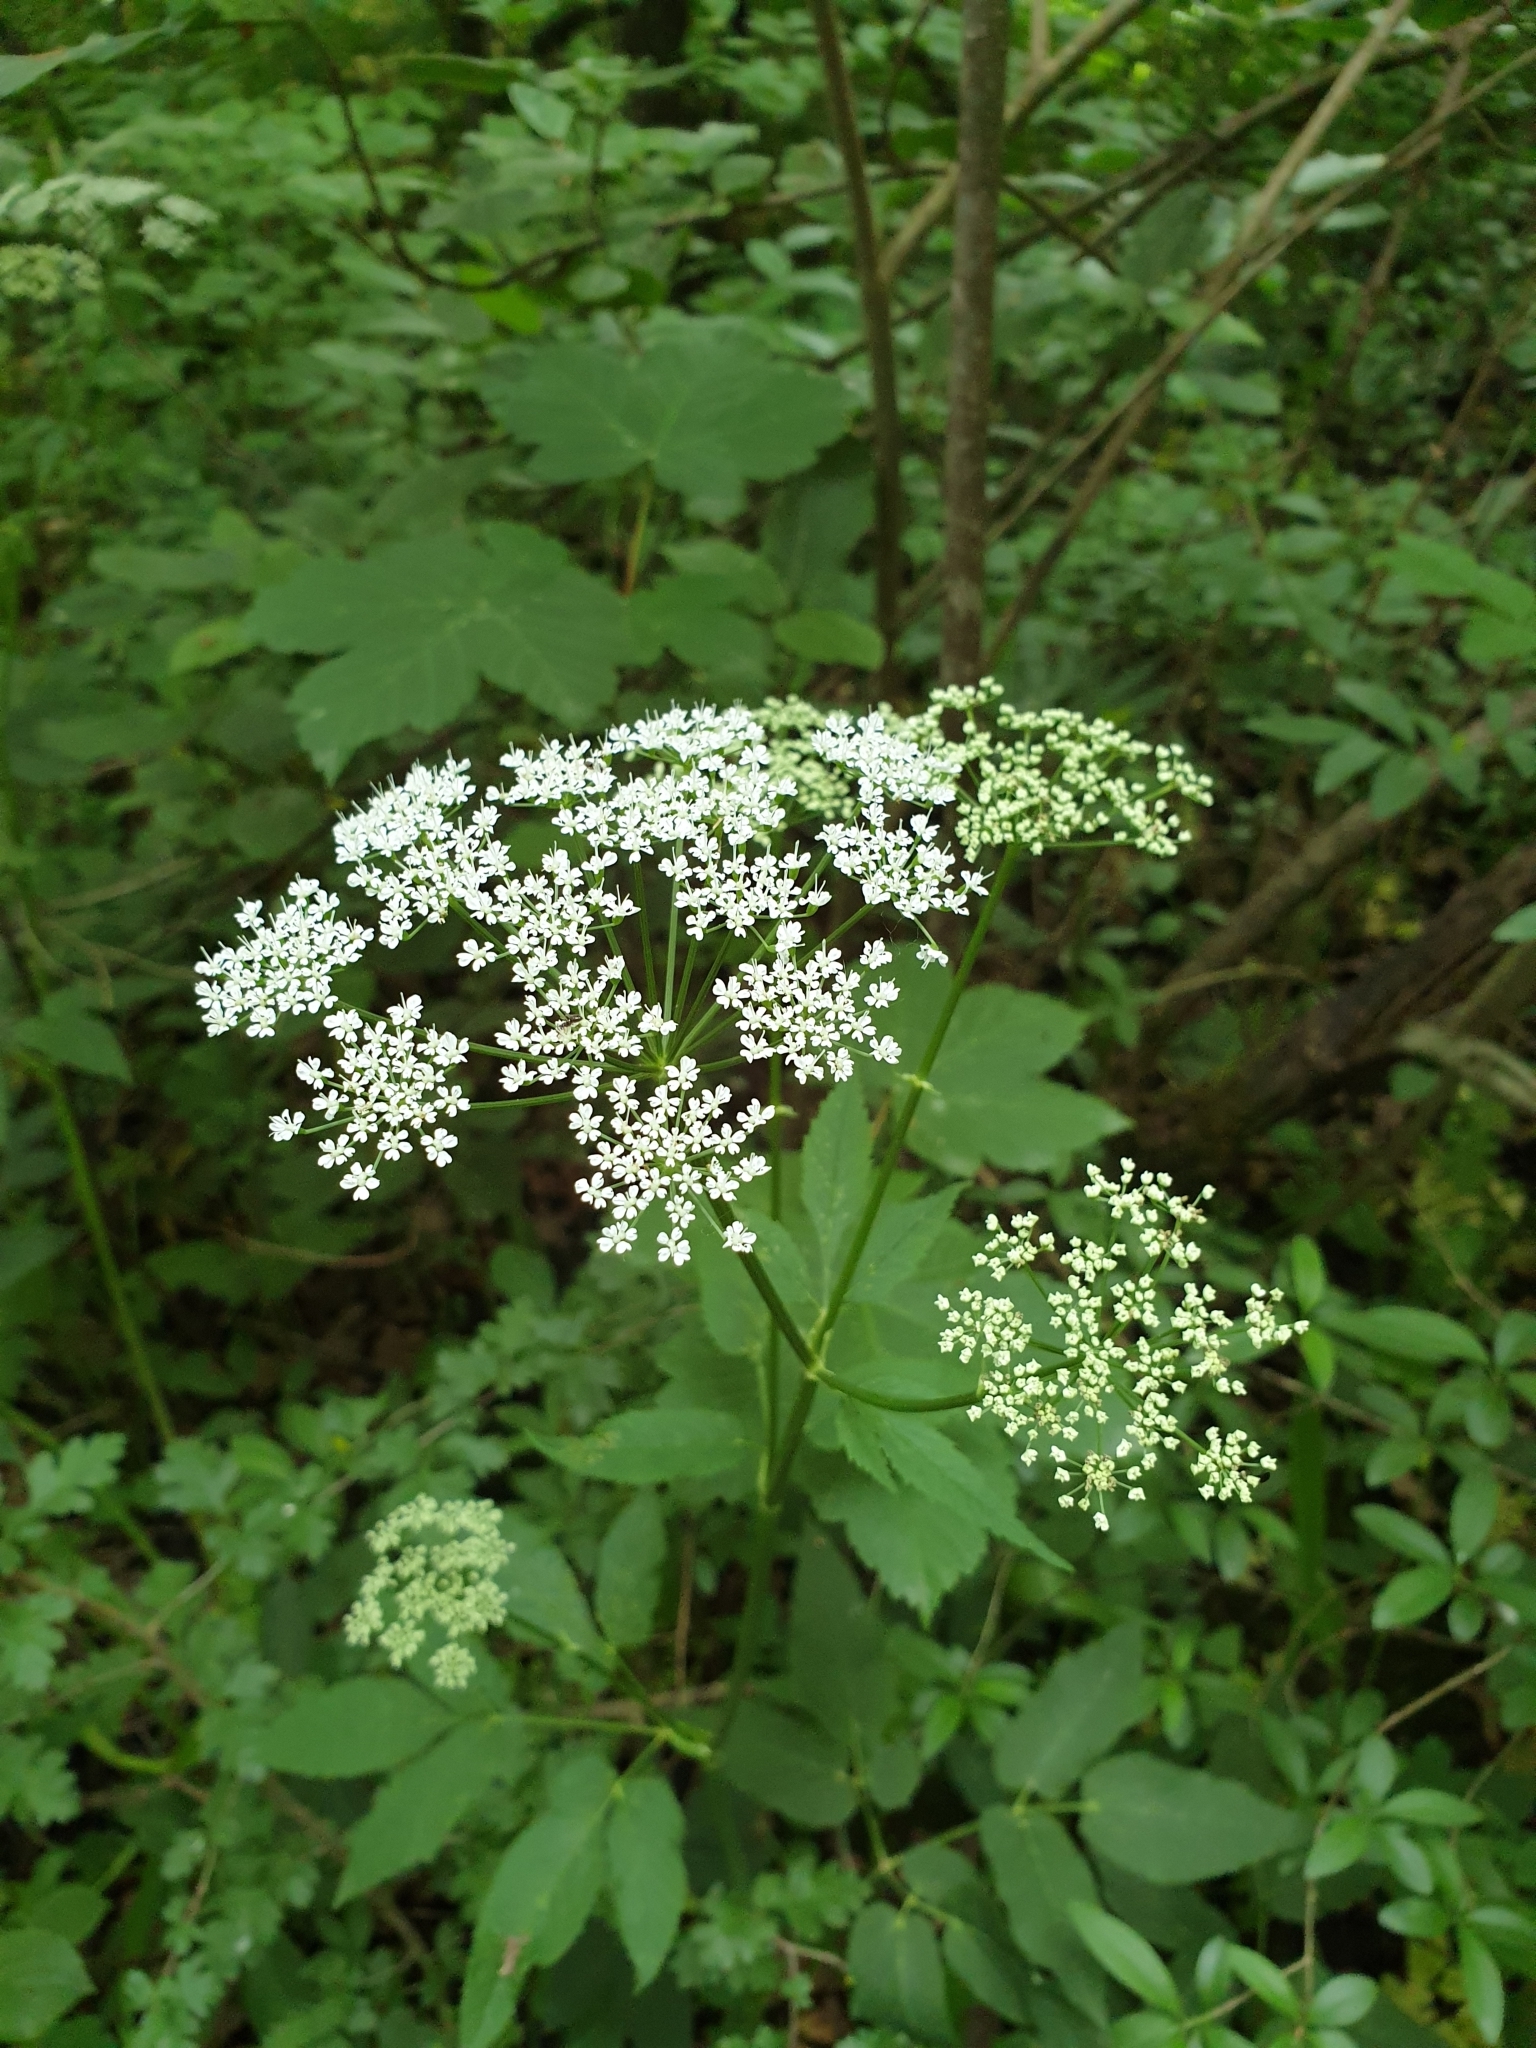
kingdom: Plantae
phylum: Tracheophyta
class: Magnoliopsida
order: Apiales
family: Apiaceae
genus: Aegopodium
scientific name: Aegopodium podagraria
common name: Ground-elder
